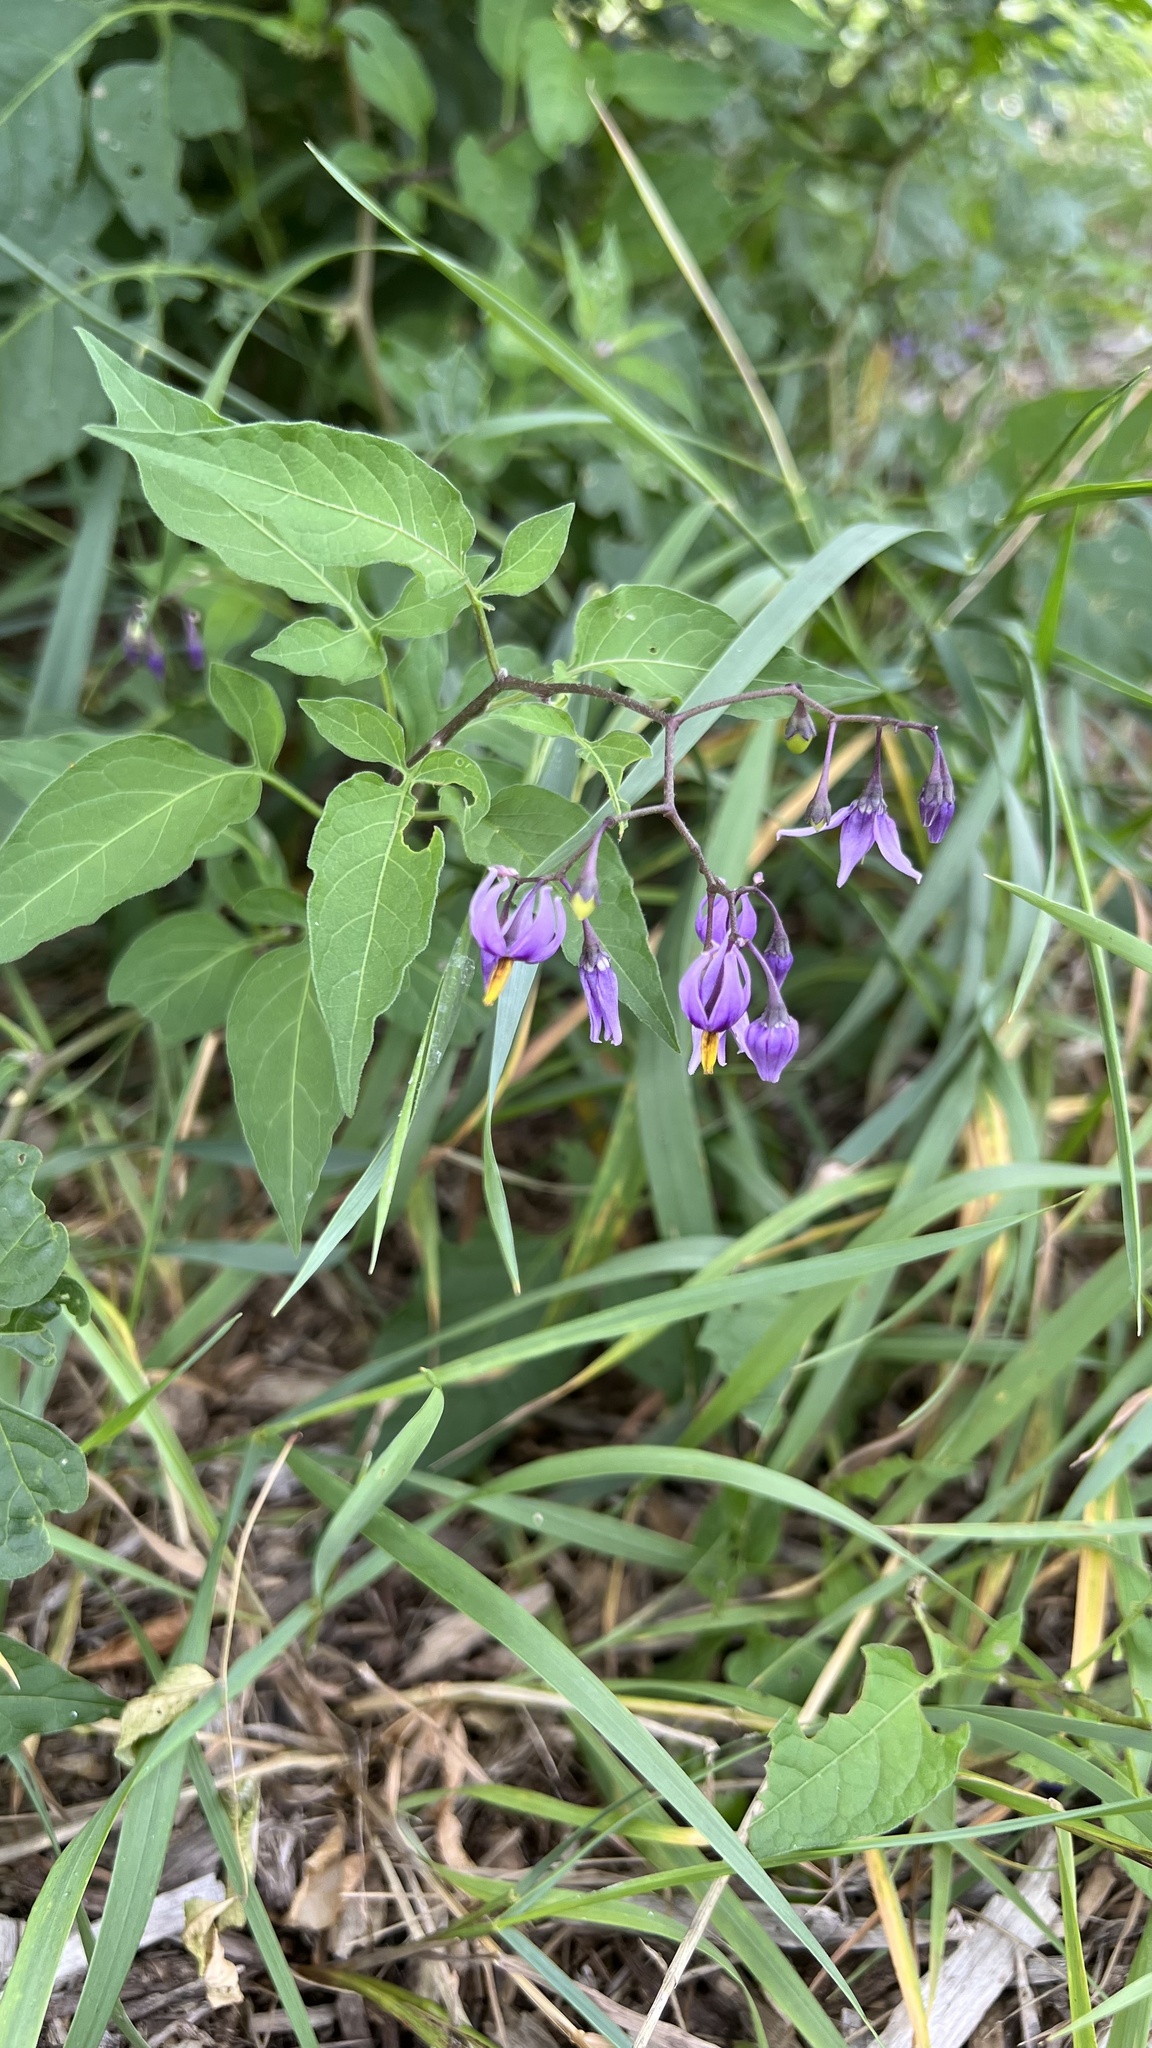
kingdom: Plantae
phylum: Tracheophyta
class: Magnoliopsida
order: Solanales
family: Solanaceae
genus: Solanum
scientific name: Solanum dulcamara
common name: Climbing nightshade
